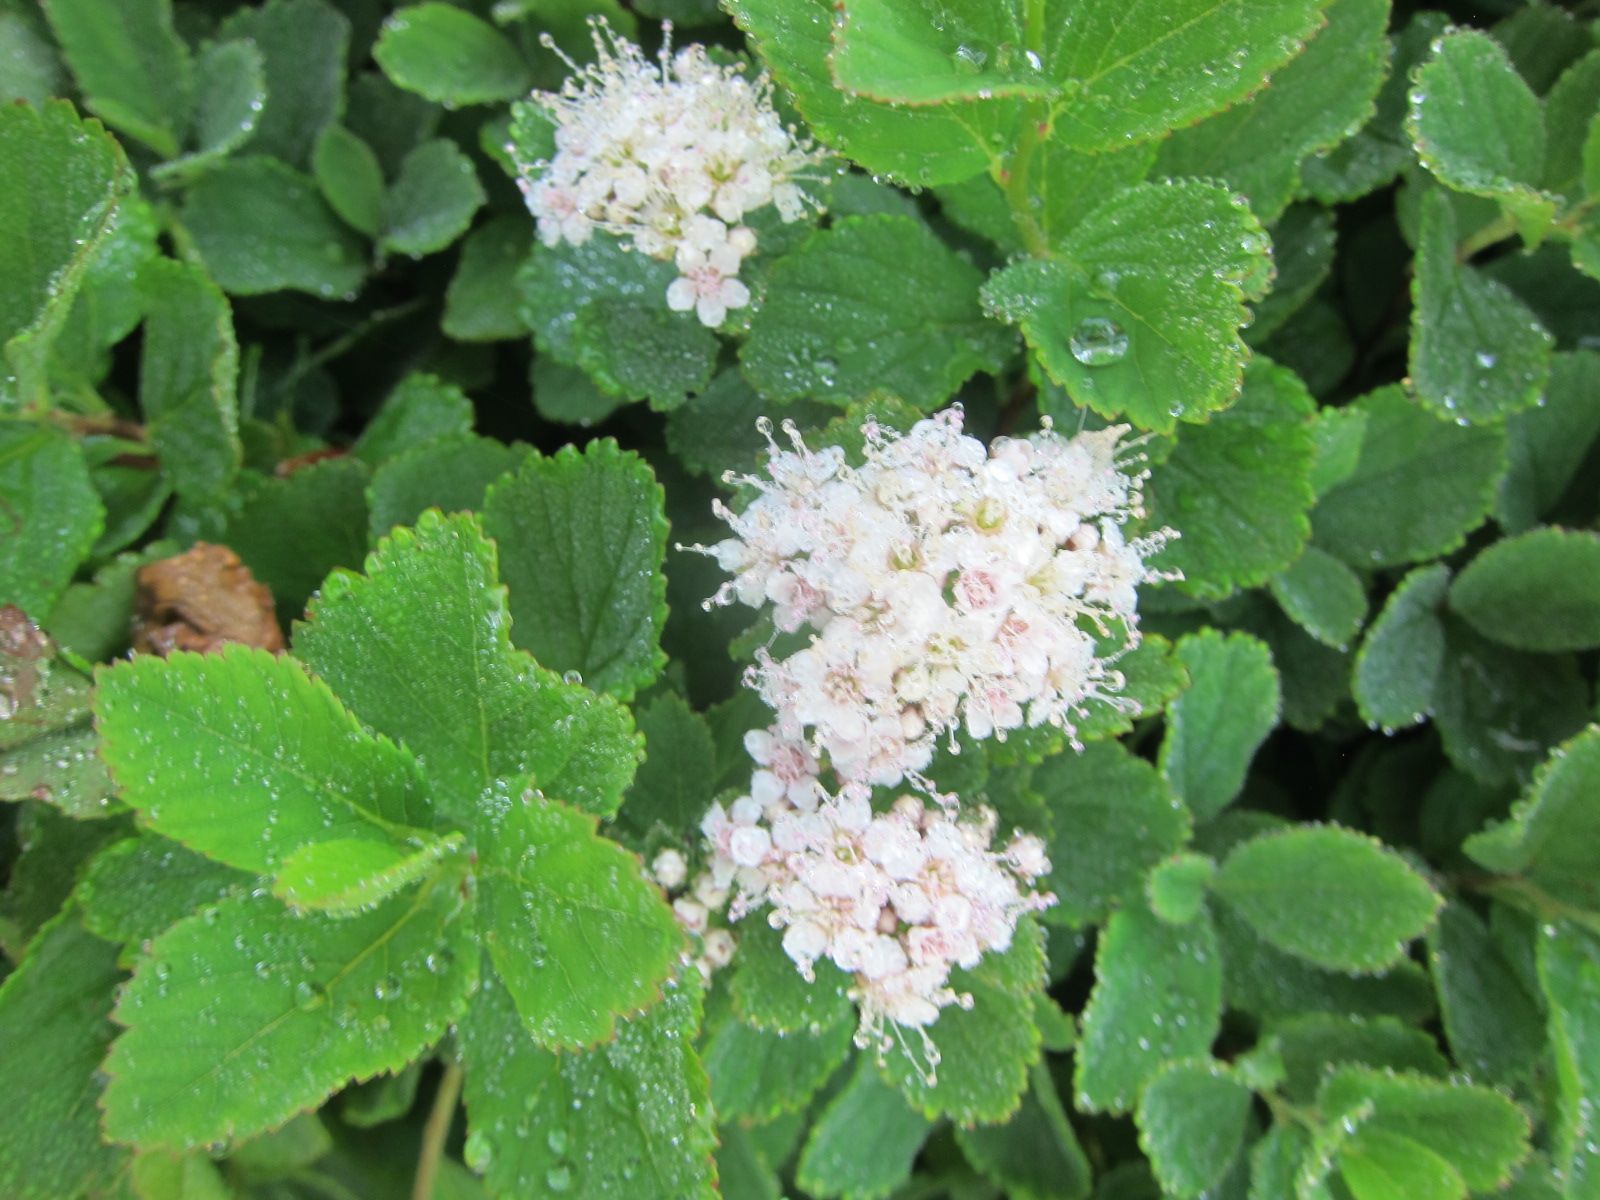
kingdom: Plantae
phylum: Tracheophyta
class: Magnoliopsida
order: Rosales
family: Rosaceae
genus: Spiraea
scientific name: Spiraea betulifolia
